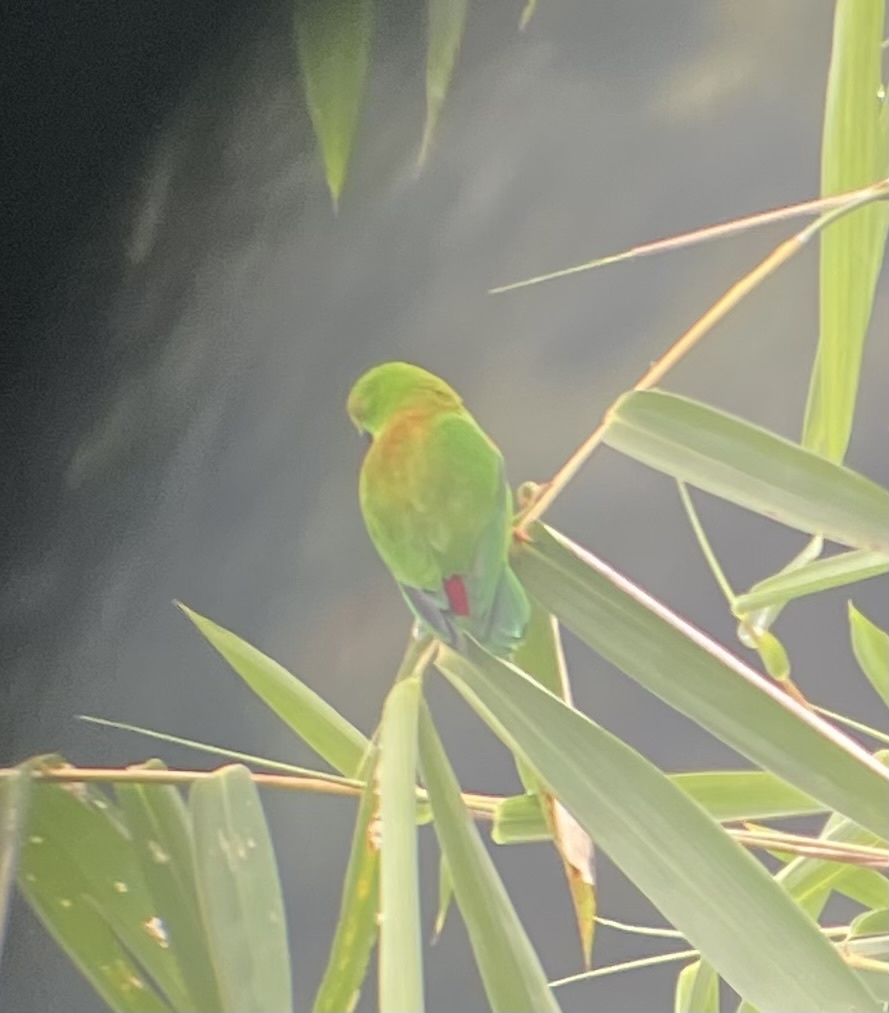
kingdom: Animalia
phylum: Chordata
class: Aves
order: Psittaciformes
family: Psittacidae
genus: Loriculus
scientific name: Loriculus stigmatus
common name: Great hanging parrot
